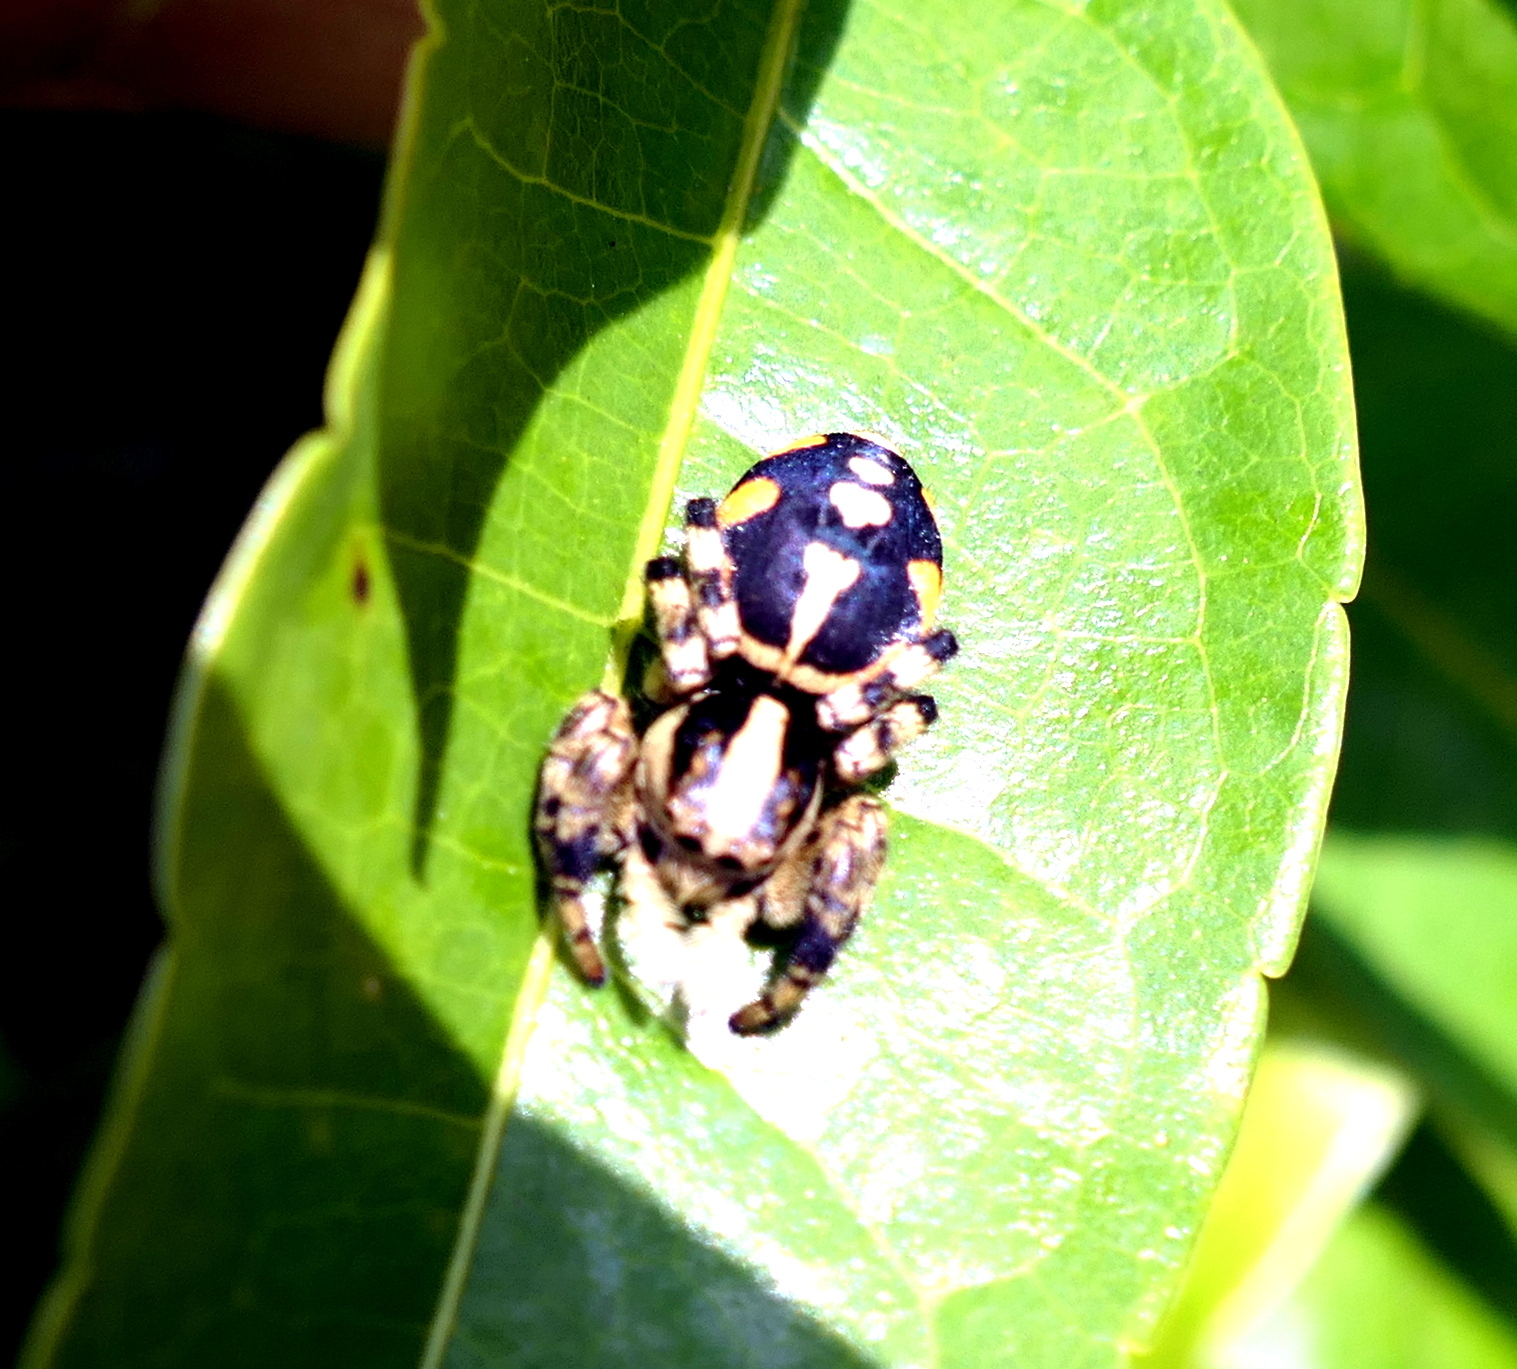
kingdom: Animalia
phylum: Arthropoda
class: Arachnida
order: Araneae
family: Salticidae
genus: Phiale
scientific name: Phiale guttata
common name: Jumping spiders
